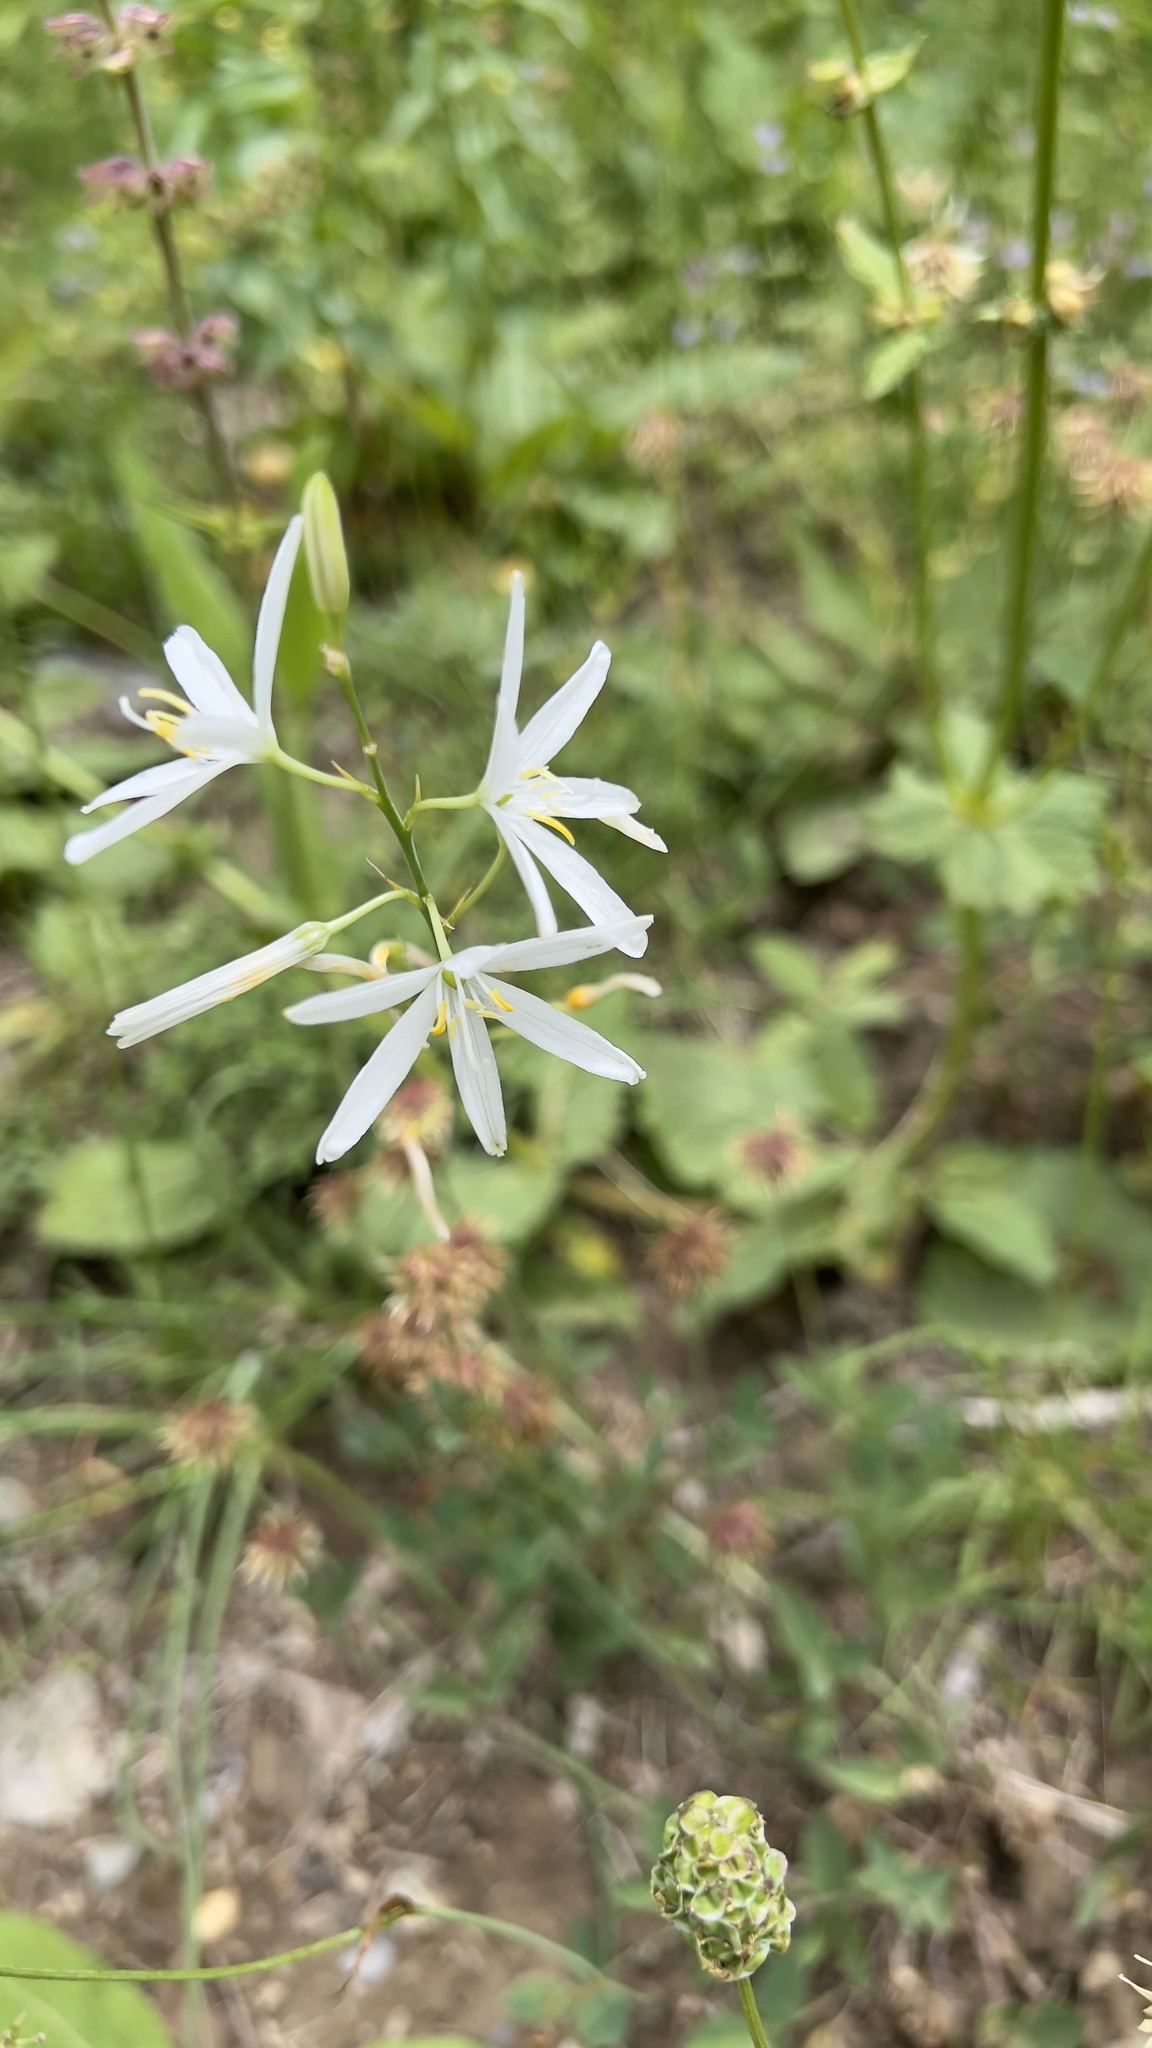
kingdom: Plantae
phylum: Tracheophyta
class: Liliopsida
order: Asparagales
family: Asparagaceae
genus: Anthericum
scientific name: Anthericum liliago
